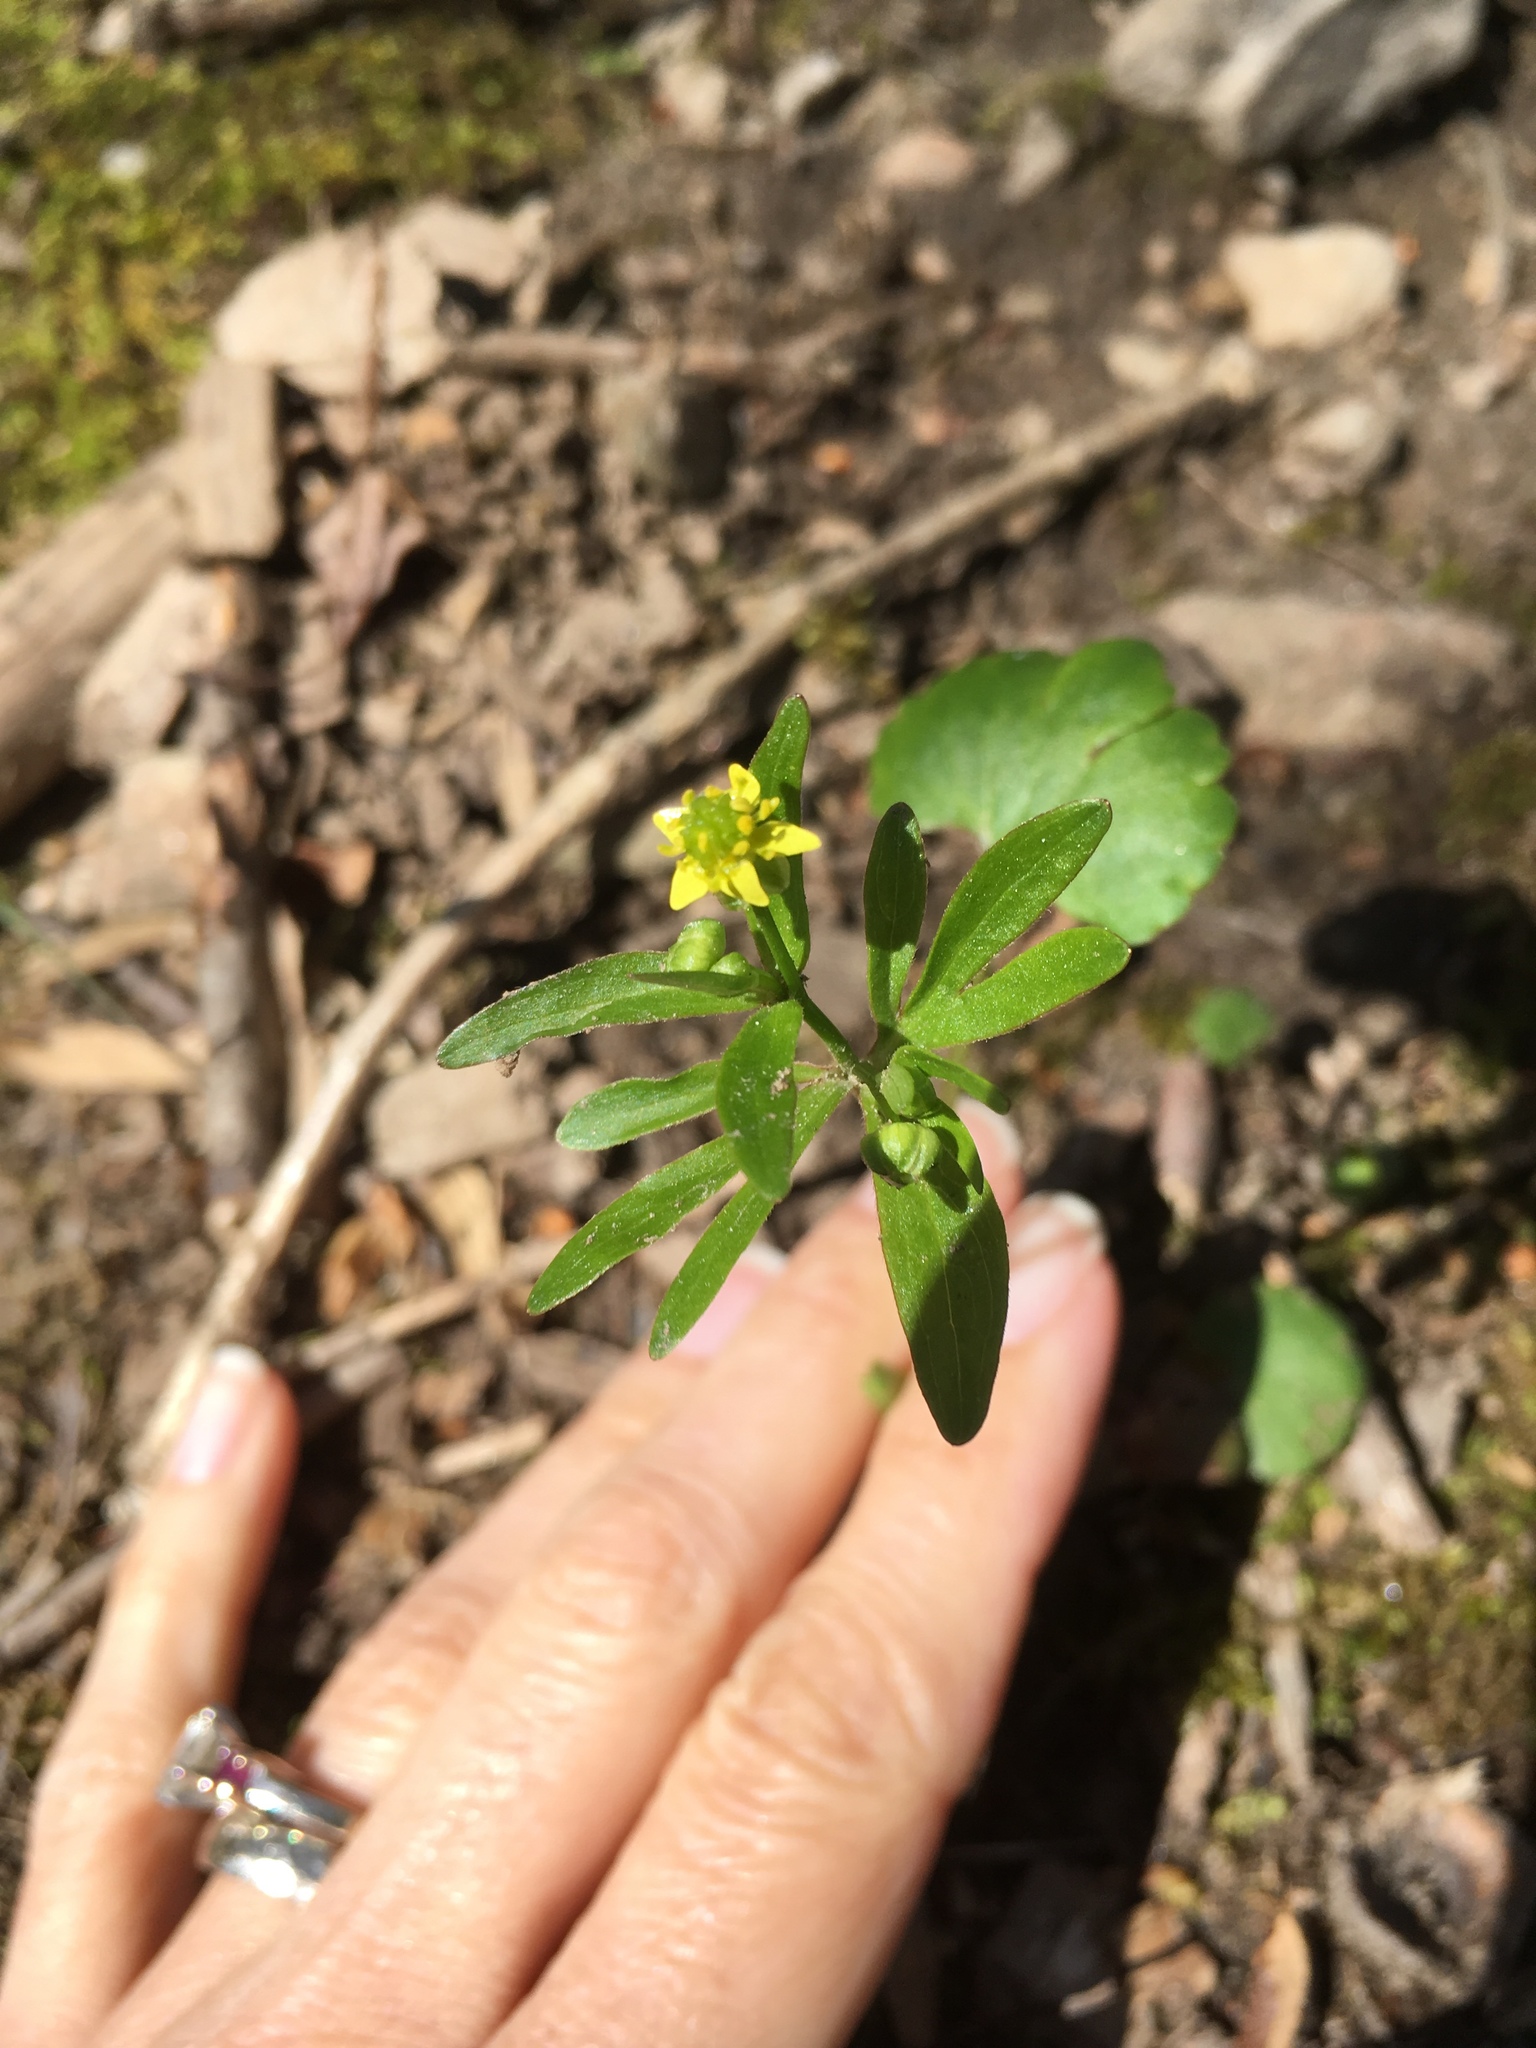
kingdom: Plantae
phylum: Tracheophyta
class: Magnoliopsida
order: Ranunculales
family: Ranunculaceae
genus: Ranunculus
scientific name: Ranunculus abortivus
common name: Early wood buttercup
